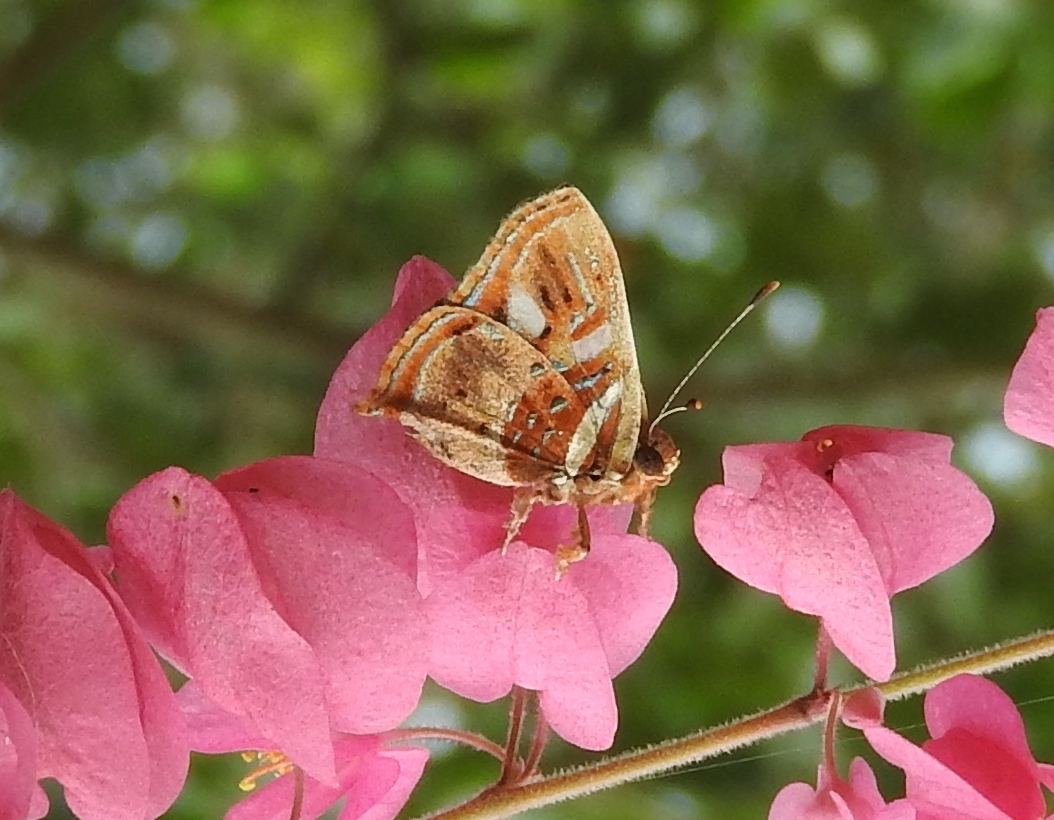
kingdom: Animalia
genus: Anteros
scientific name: Anteros carausius
